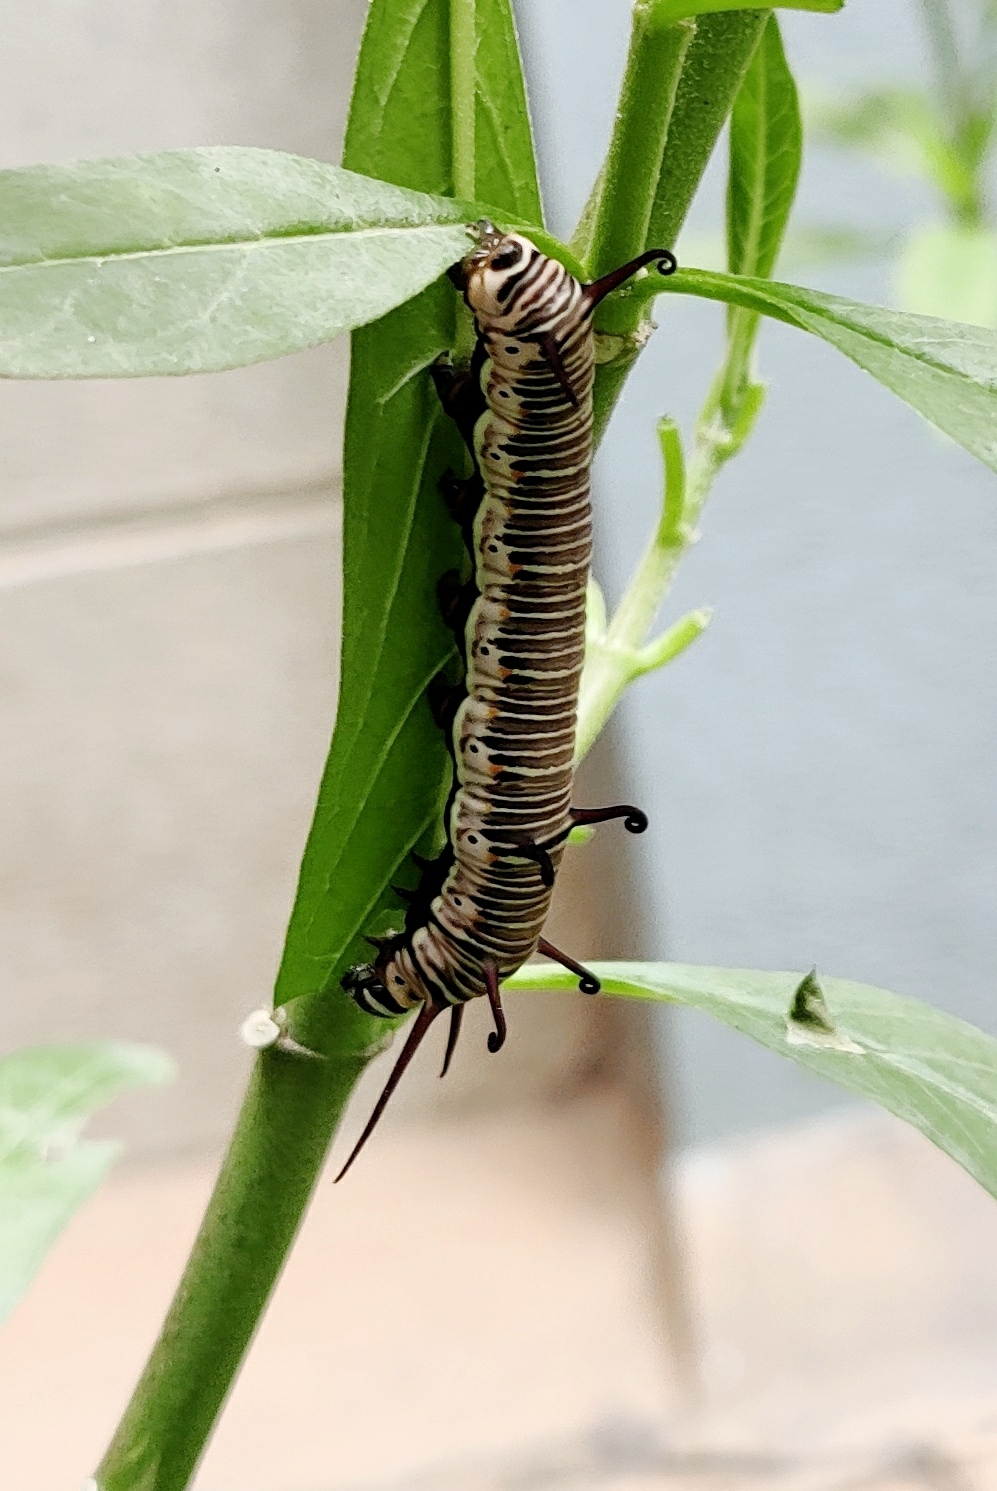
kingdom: Animalia
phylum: Arthropoda
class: Insecta
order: Lepidoptera
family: Nymphalidae
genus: Euploea
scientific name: Euploea core
